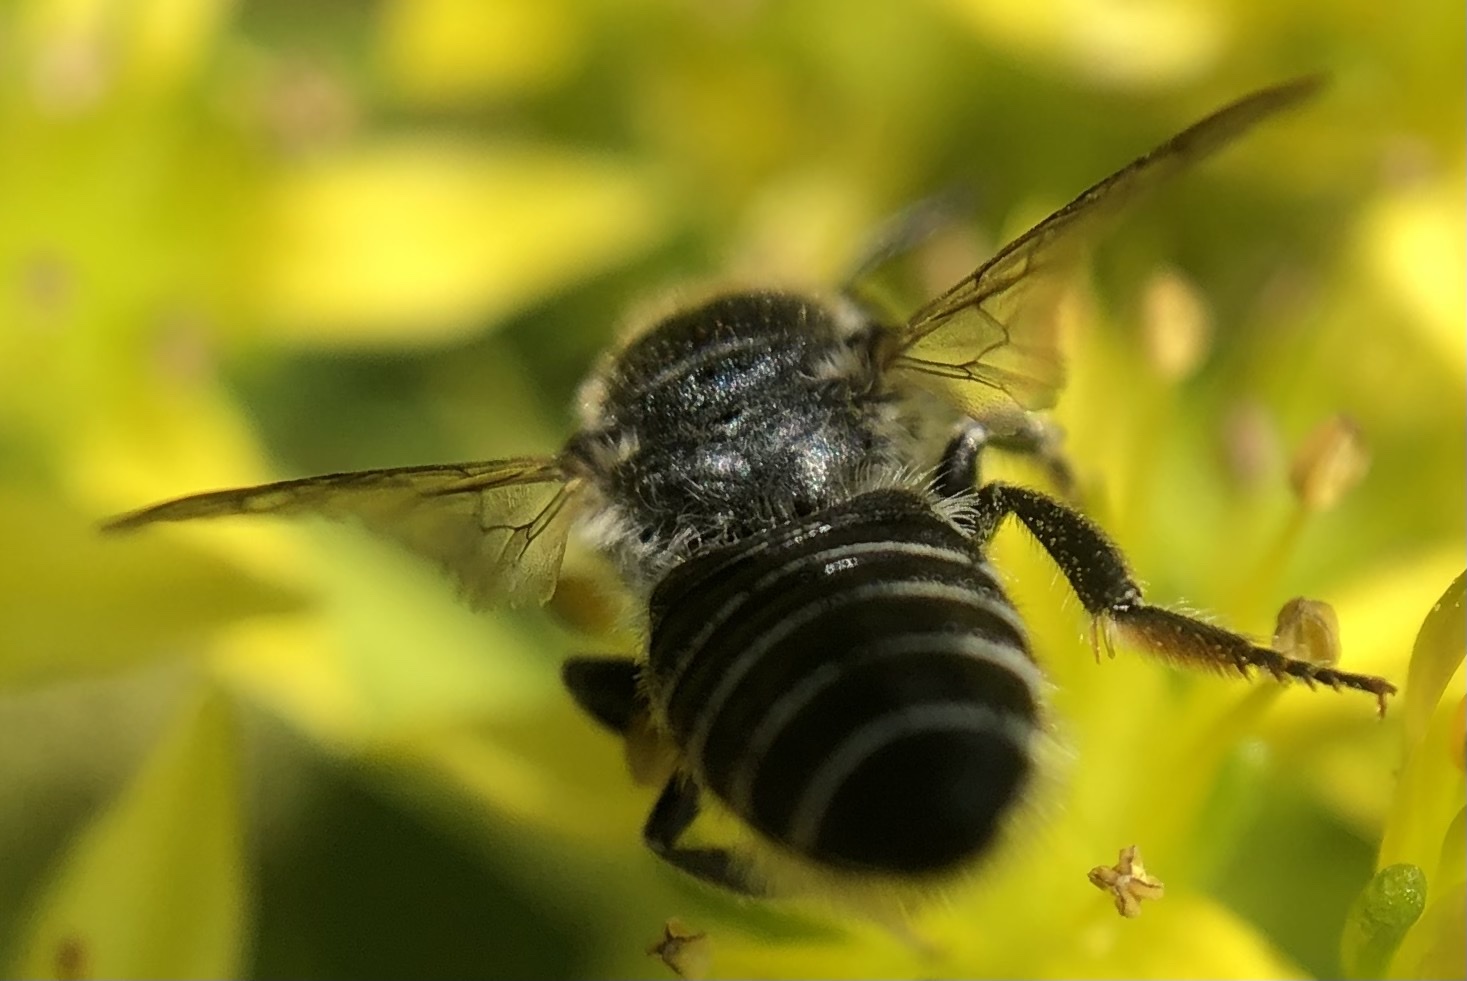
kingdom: Animalia
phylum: Arthropoda
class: Insecta
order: Hymenoptera
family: Megachilidae
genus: Megachile
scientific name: Megachile rotundata
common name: Alfalfa leafcutting bee
